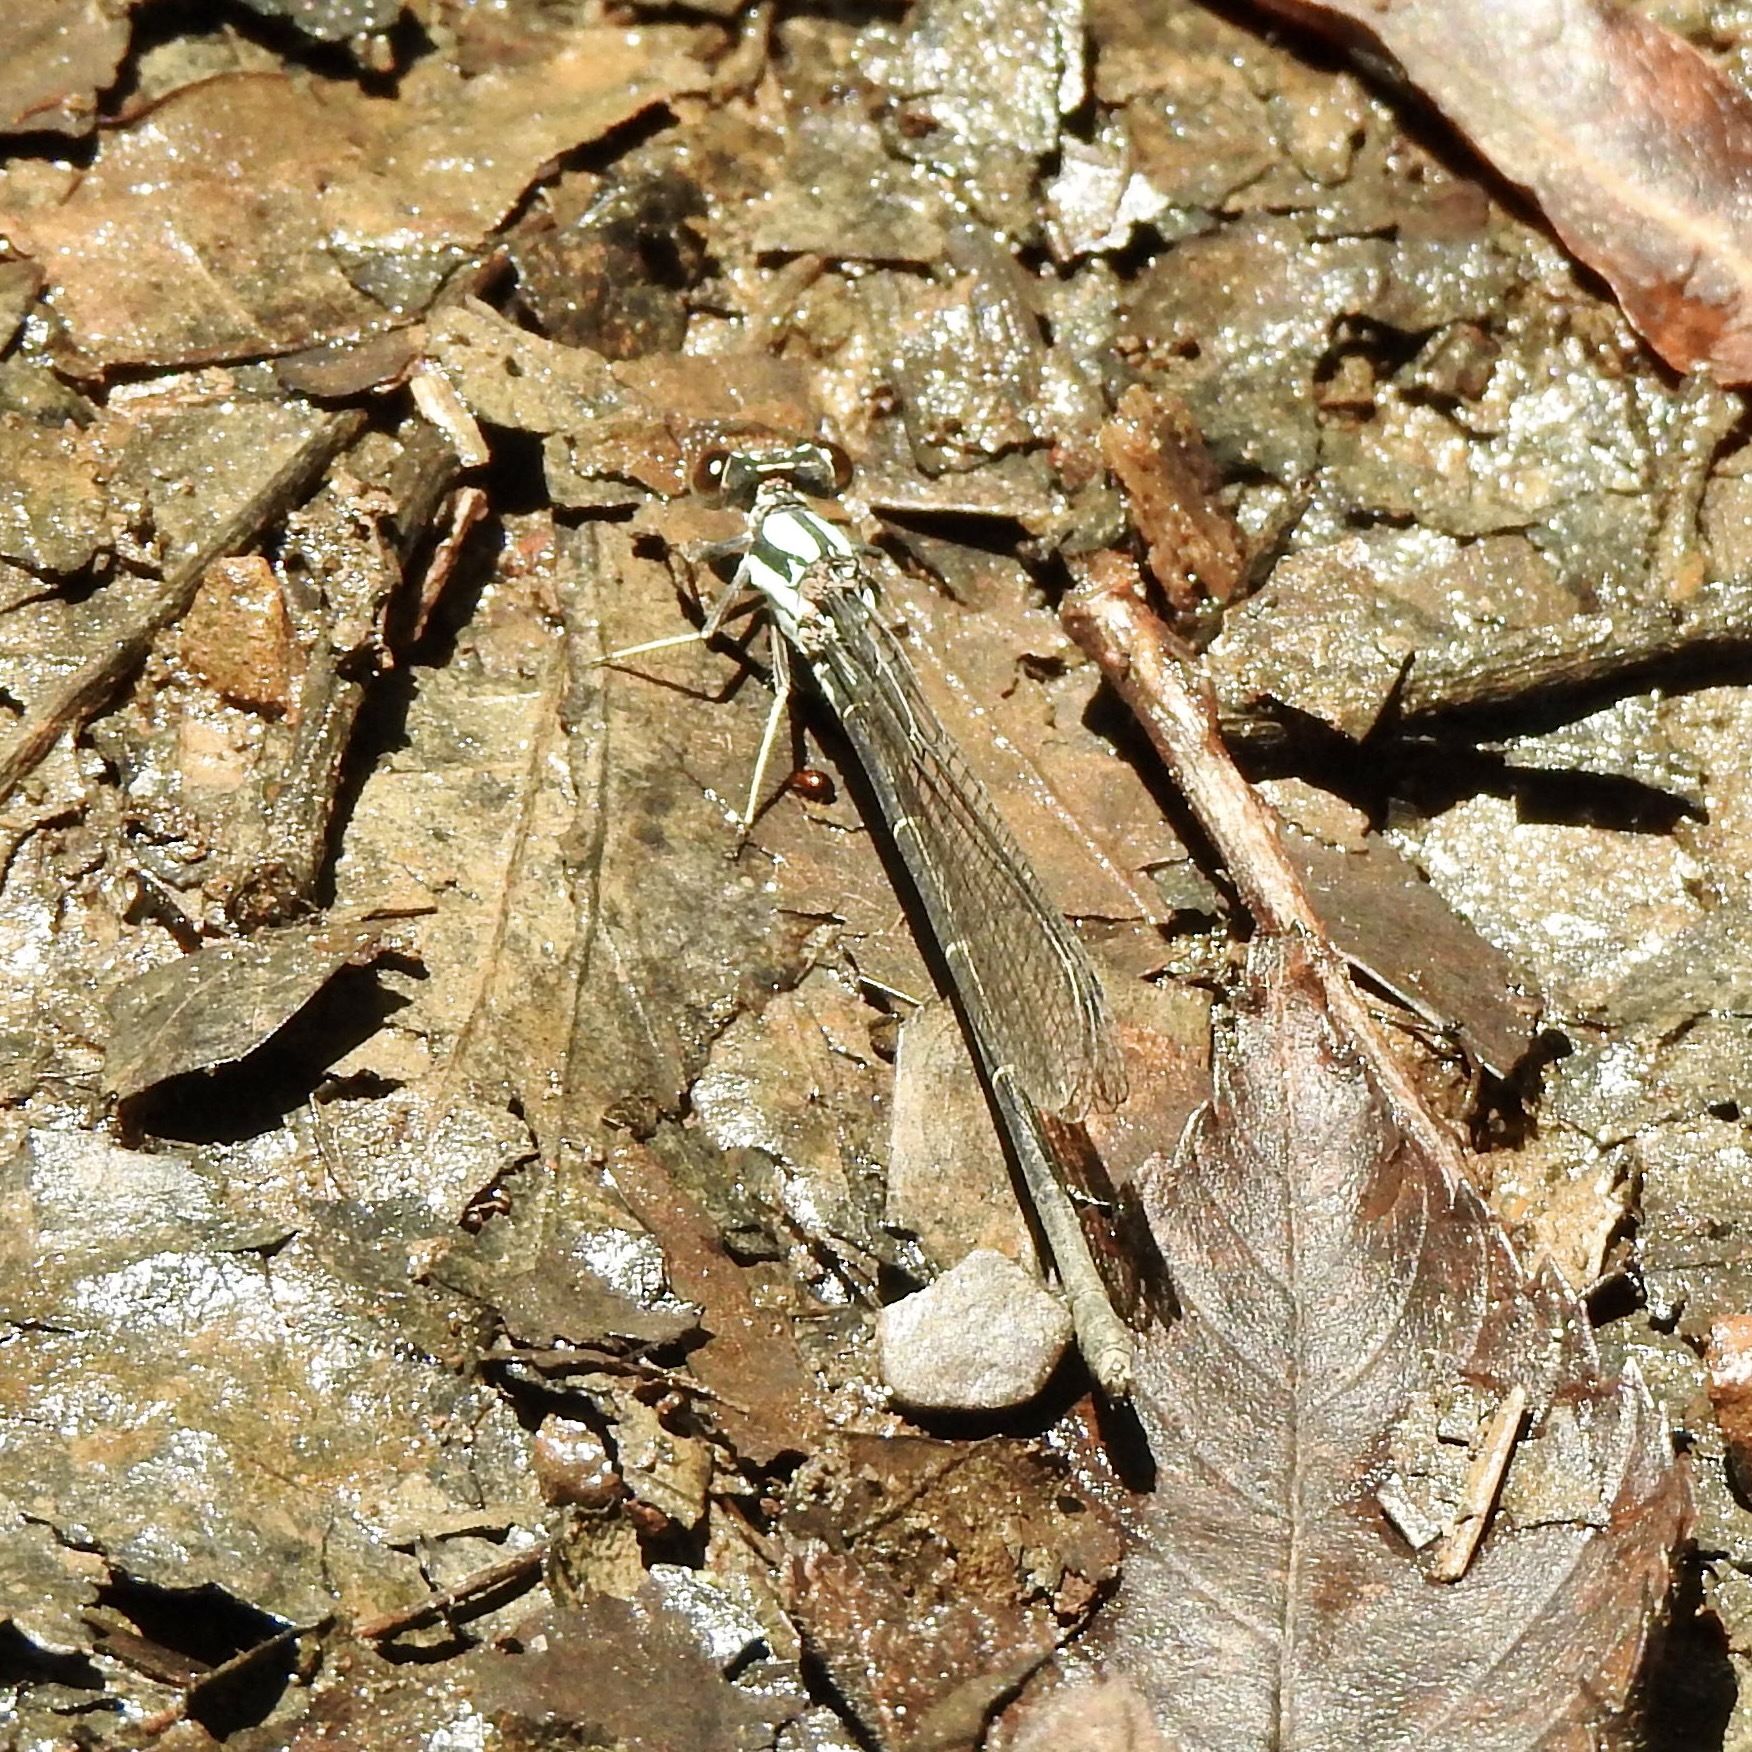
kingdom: Animalia
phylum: Arthropoda
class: Insecta
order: Odonata
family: Coenagrionidae
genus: Argia
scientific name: Argia moesta
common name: Powdered dancer
